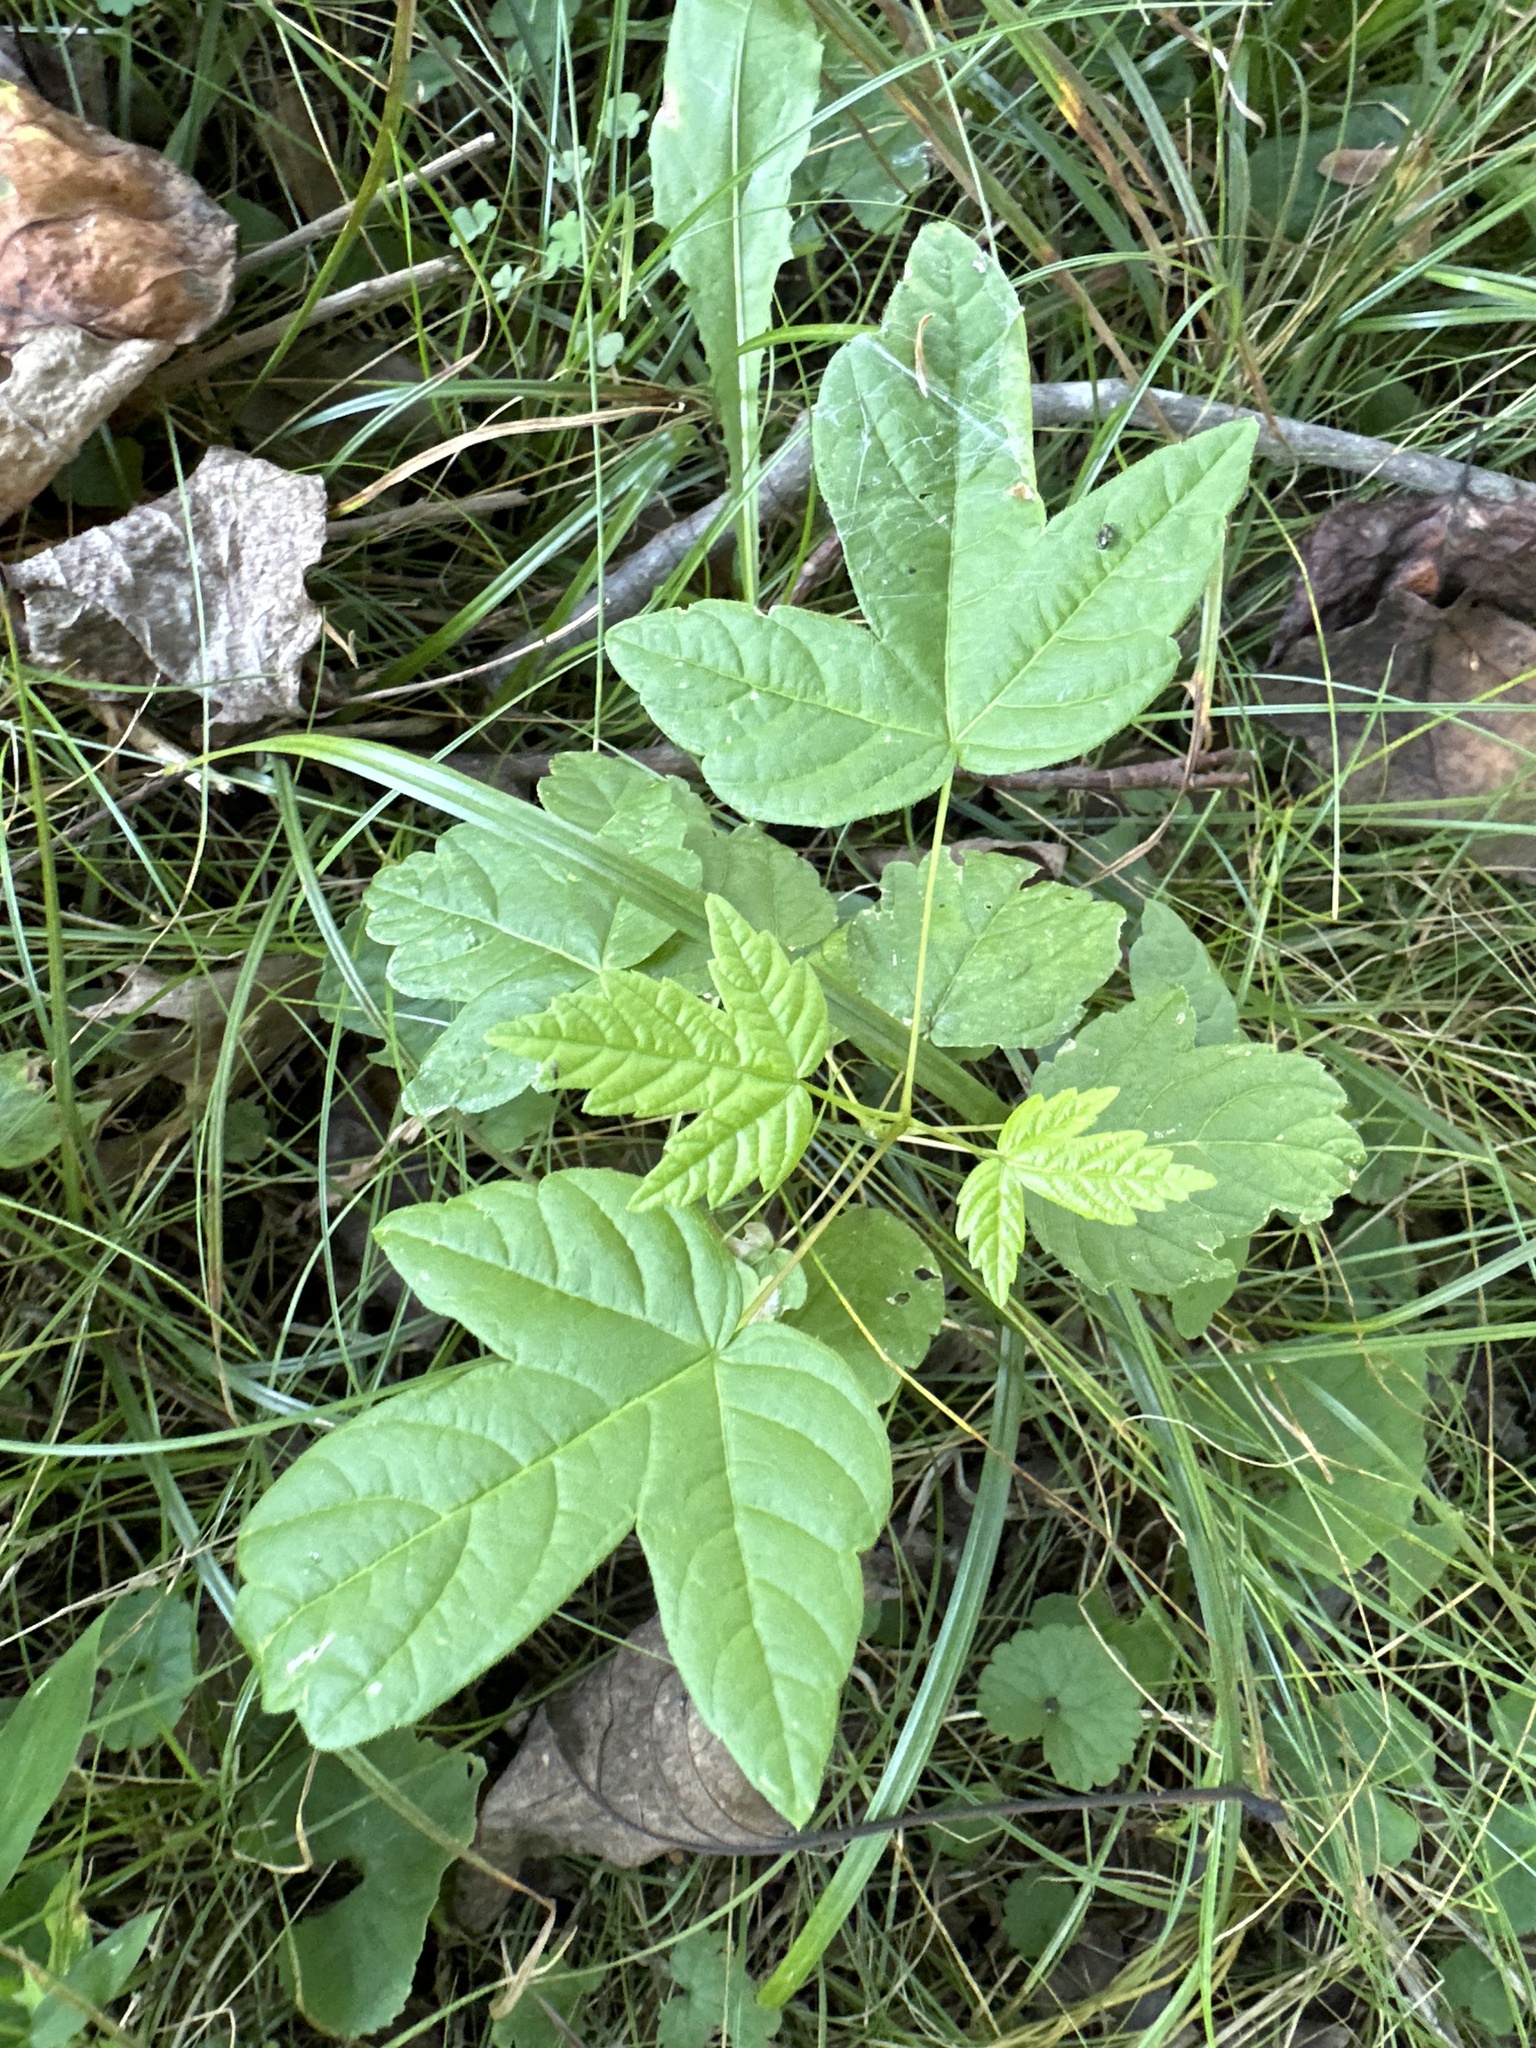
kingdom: Plantae
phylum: Tracheophyta
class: Magnoliopsida
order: Sapindales
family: Sapindaceae
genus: Acer
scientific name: Acer negundo
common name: Ashleaf maple
